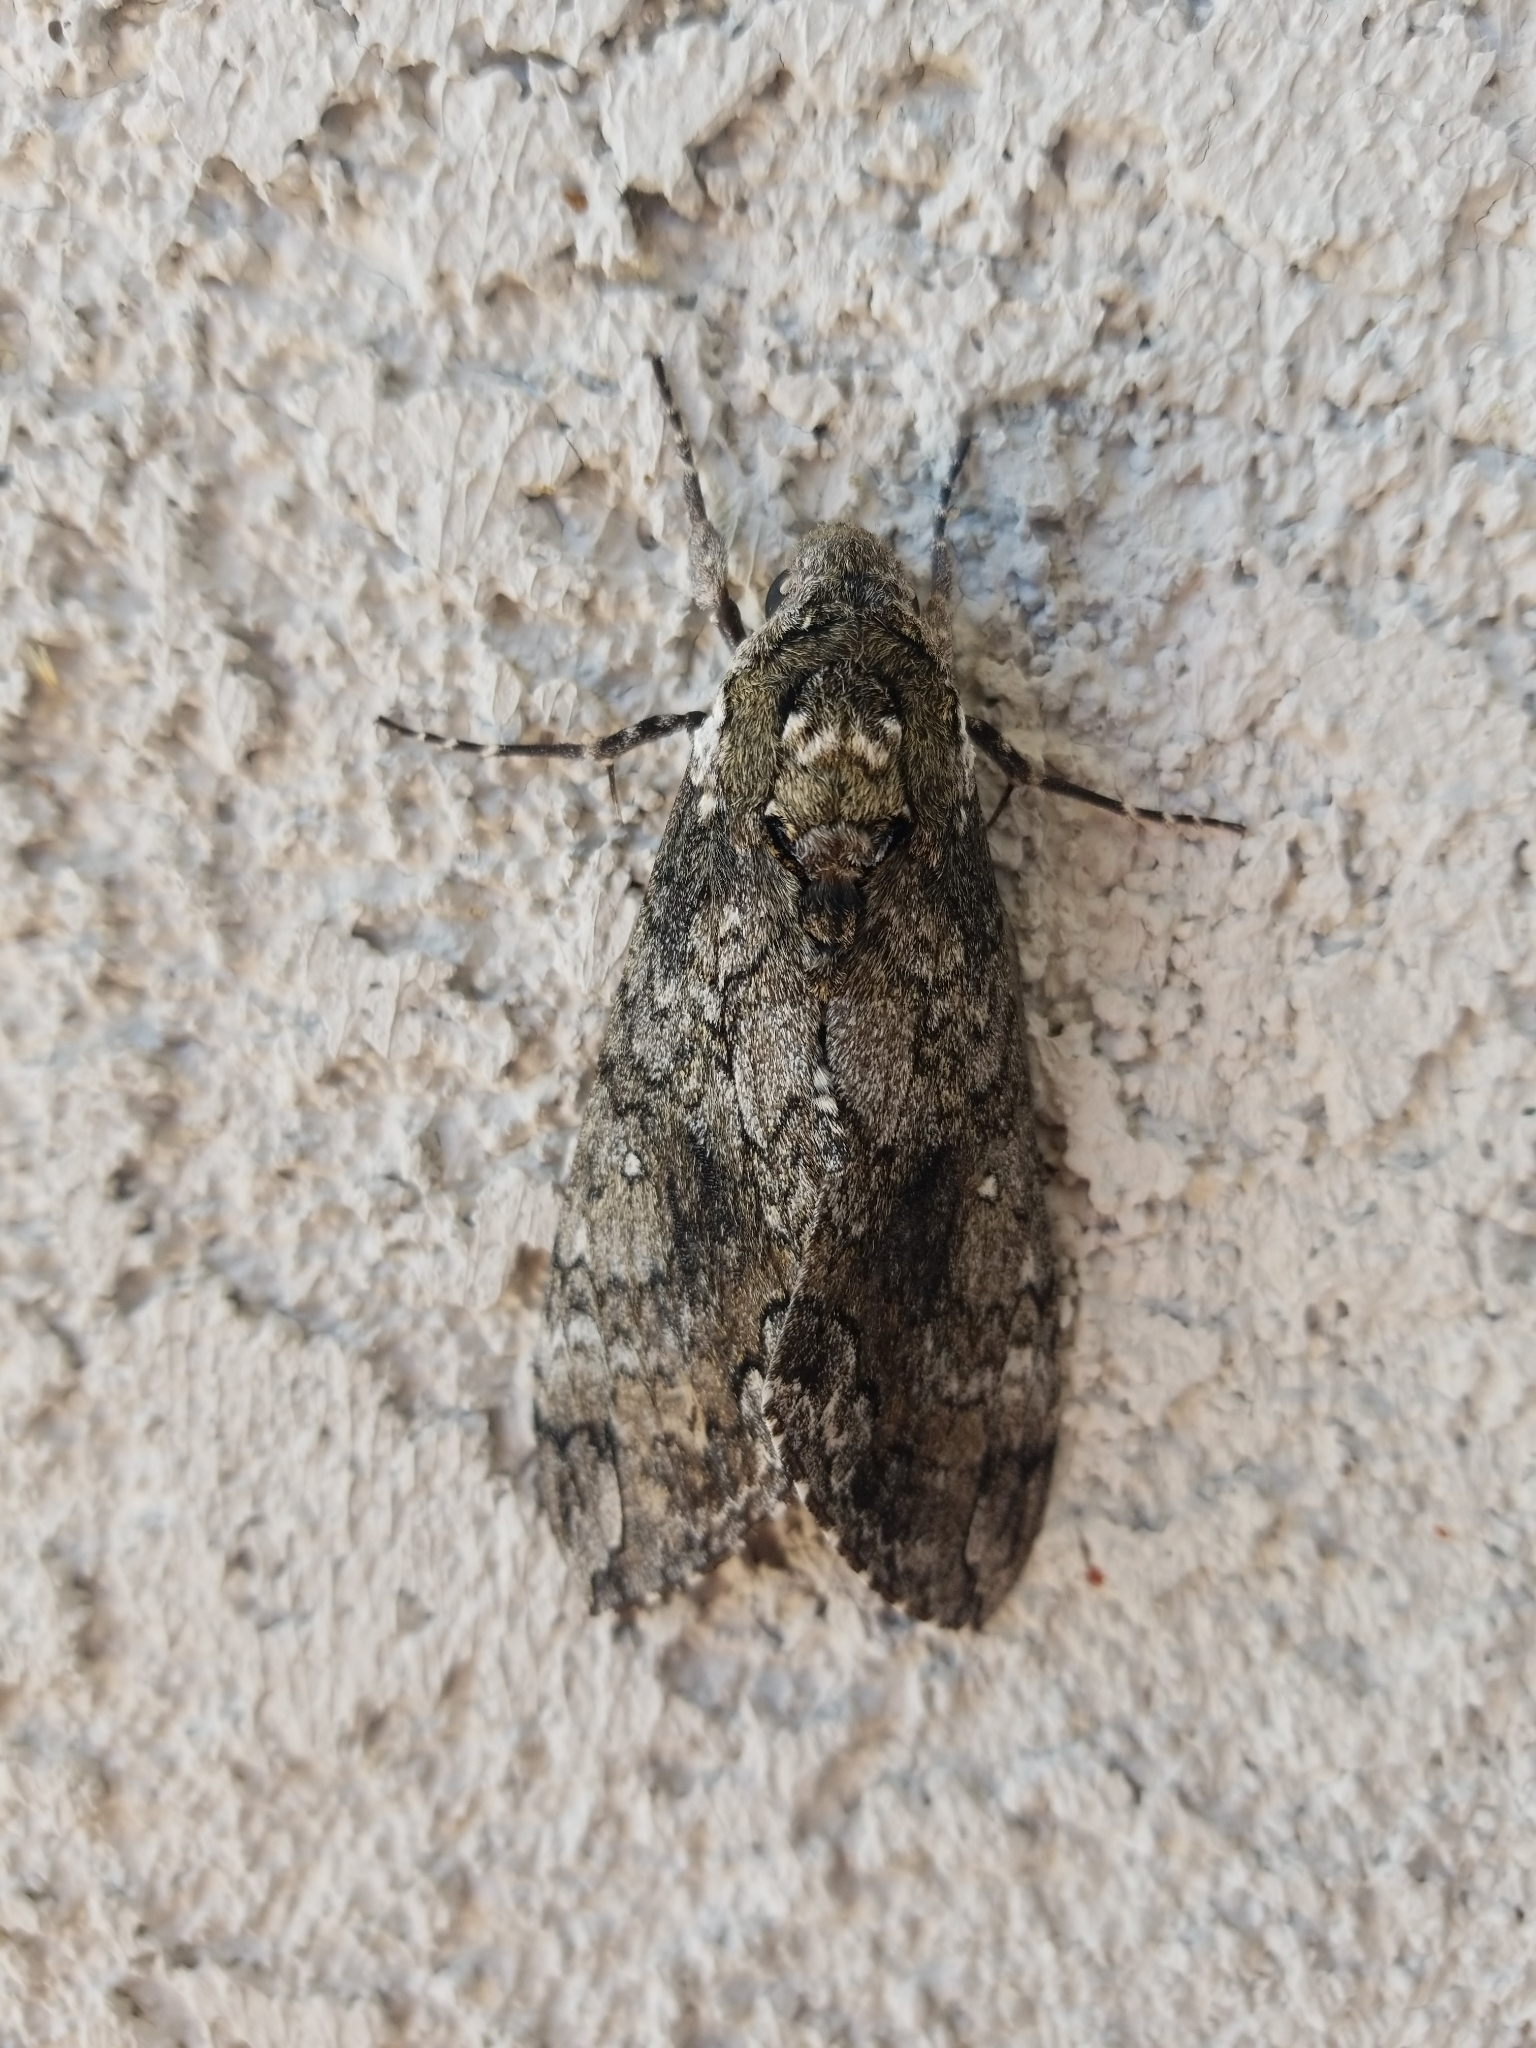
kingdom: Animalia
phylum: Arthropoda
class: Insecta
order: Lepidoptera
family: Sphingidae
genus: Manduca
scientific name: Manduca sexta
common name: Carolina sphinx
